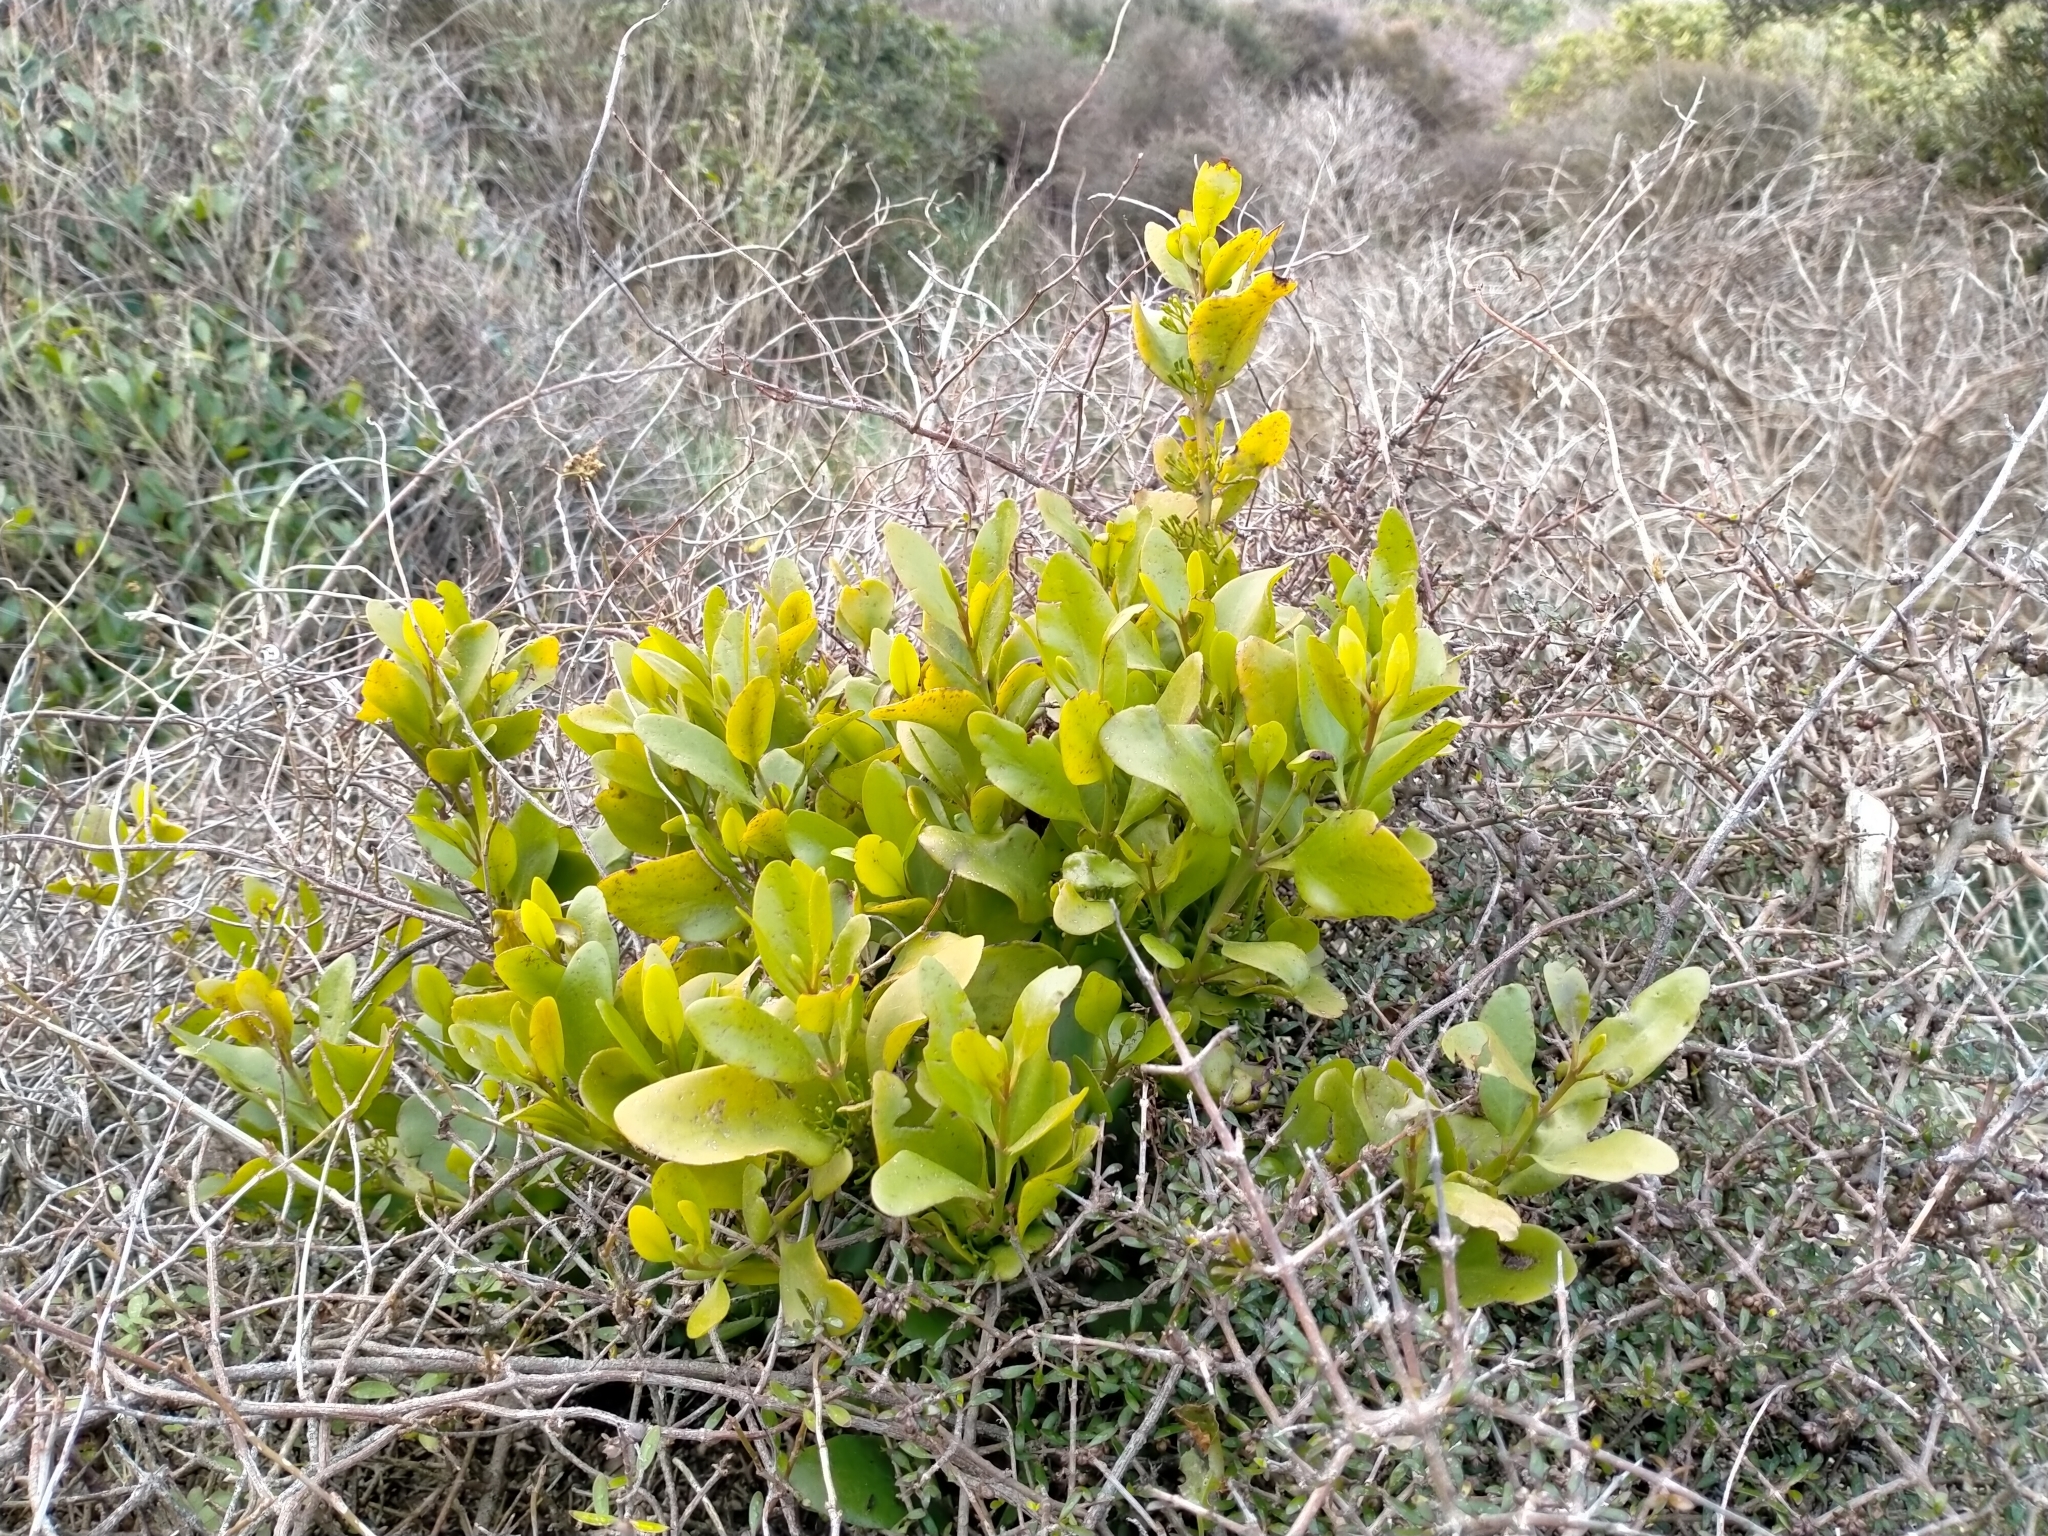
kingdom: Plantae
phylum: Tracheophyta
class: Magnoliopsida
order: Santalales
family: Loranthaceae
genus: Ileostylus
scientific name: Ileostylus micranthus
